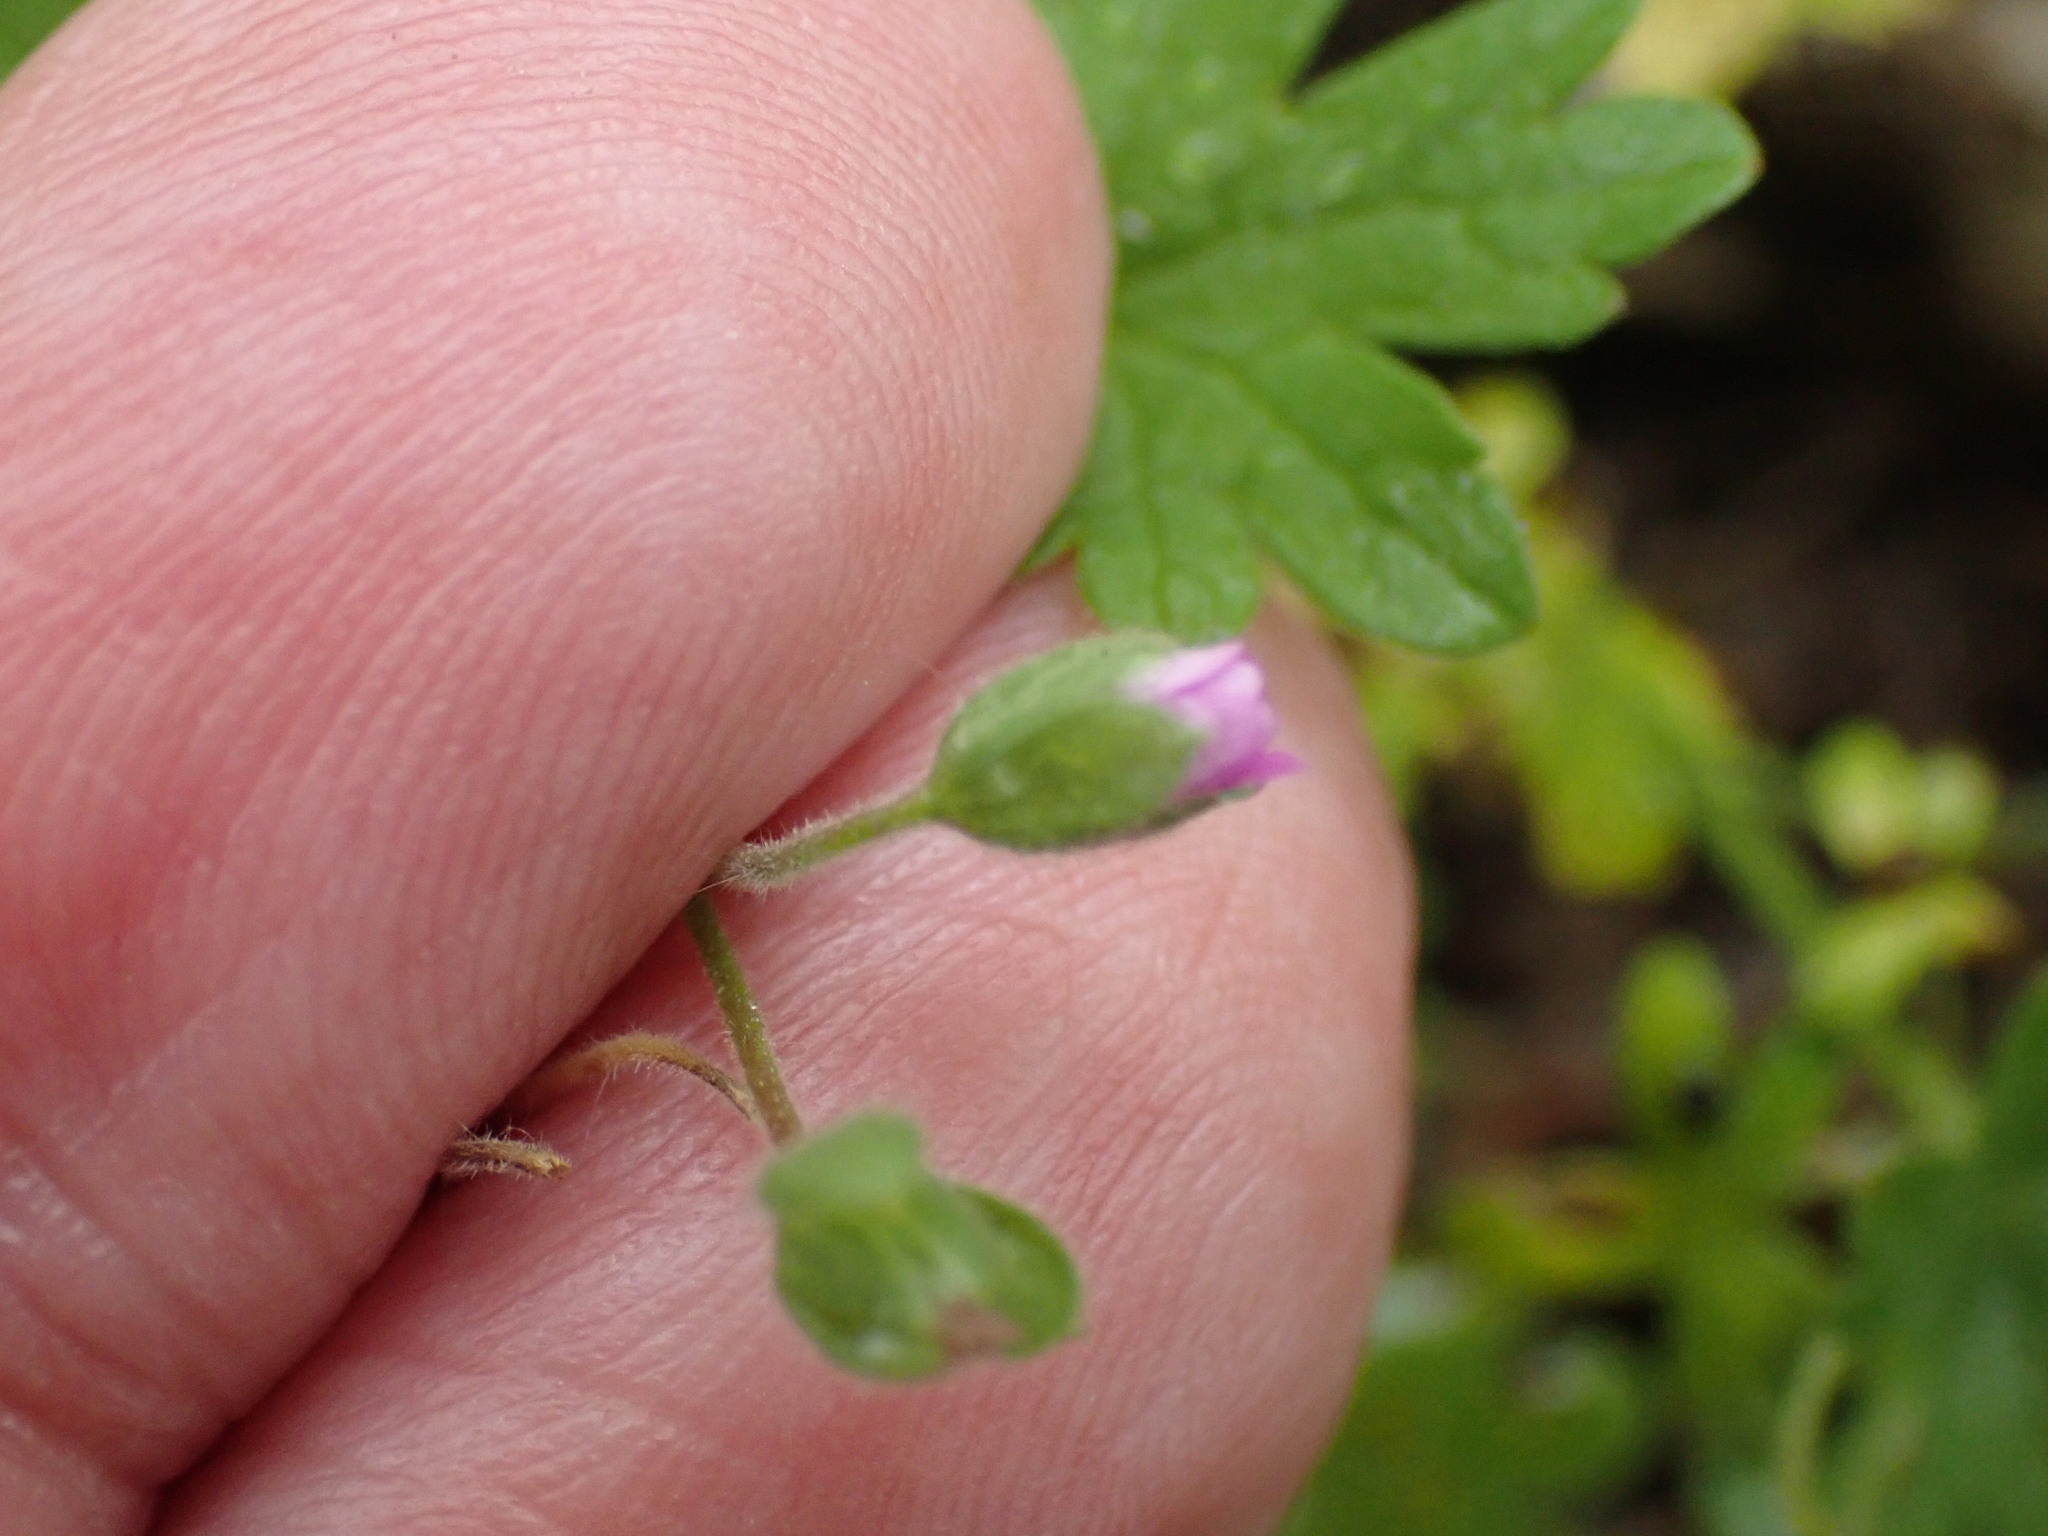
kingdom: Plantae
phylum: Tracheophyta
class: Magnoliopsida
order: Geraniales
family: Geraniaceae
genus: Geranium
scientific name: Geranium molle
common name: Dove's-foot crane's-bill
